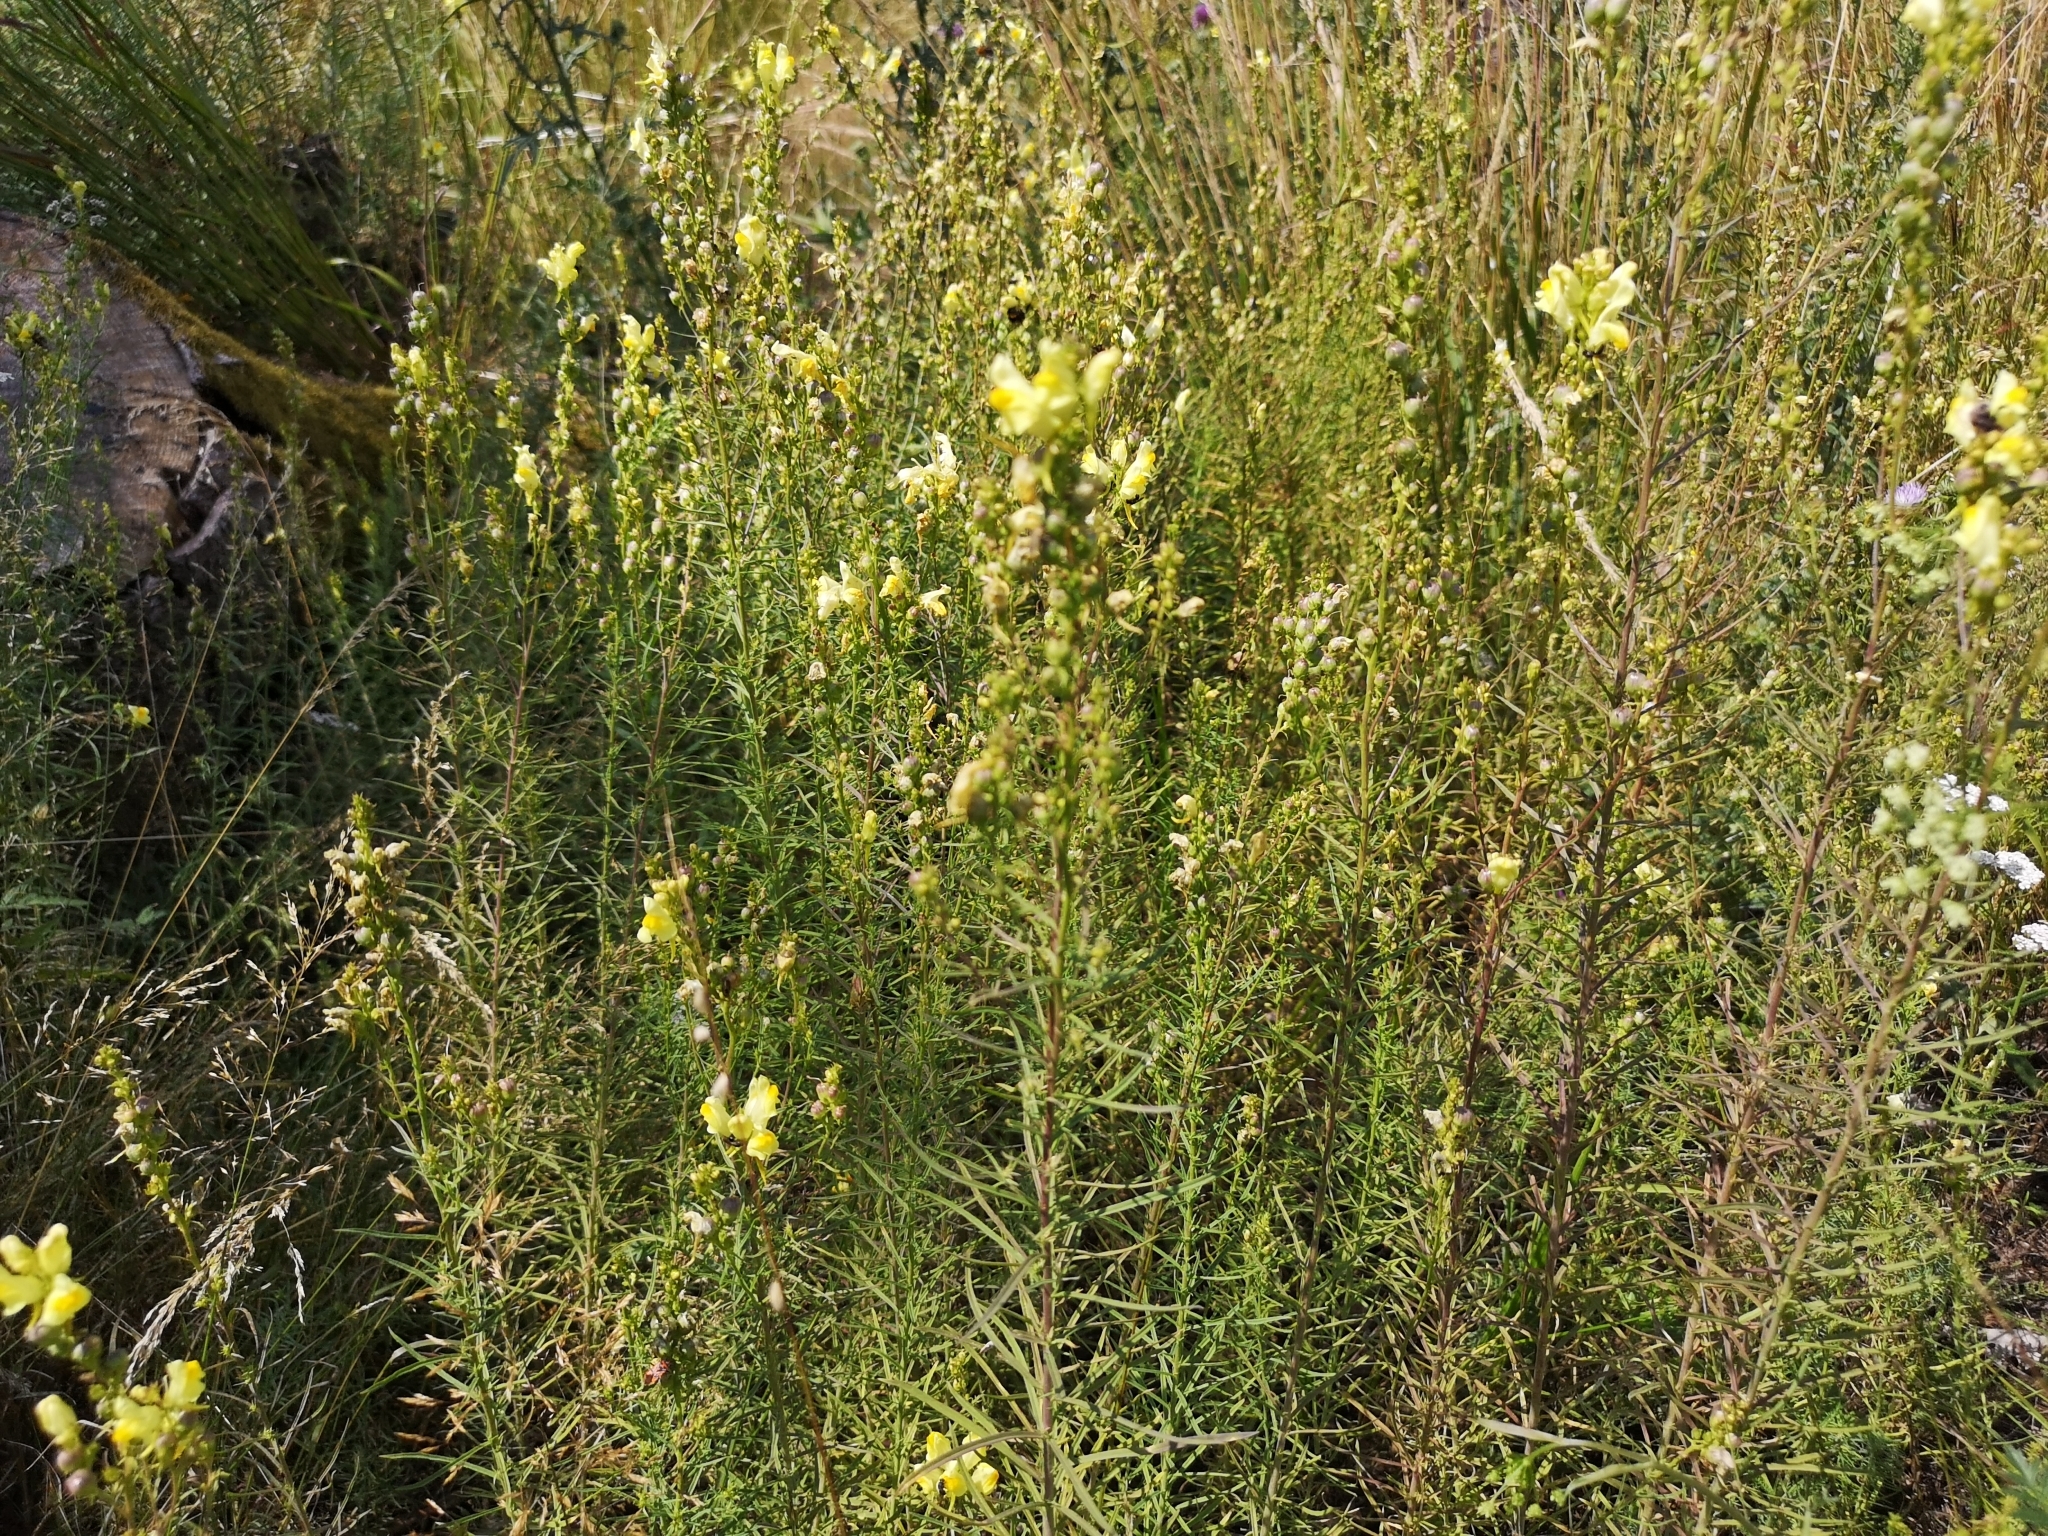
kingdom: Plantae
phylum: Tracheophyta
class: Magnoliopsida
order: Lamiales
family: Plantaginaceae
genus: Linaria
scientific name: Linaria vulgaris
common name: Butter and eggs
